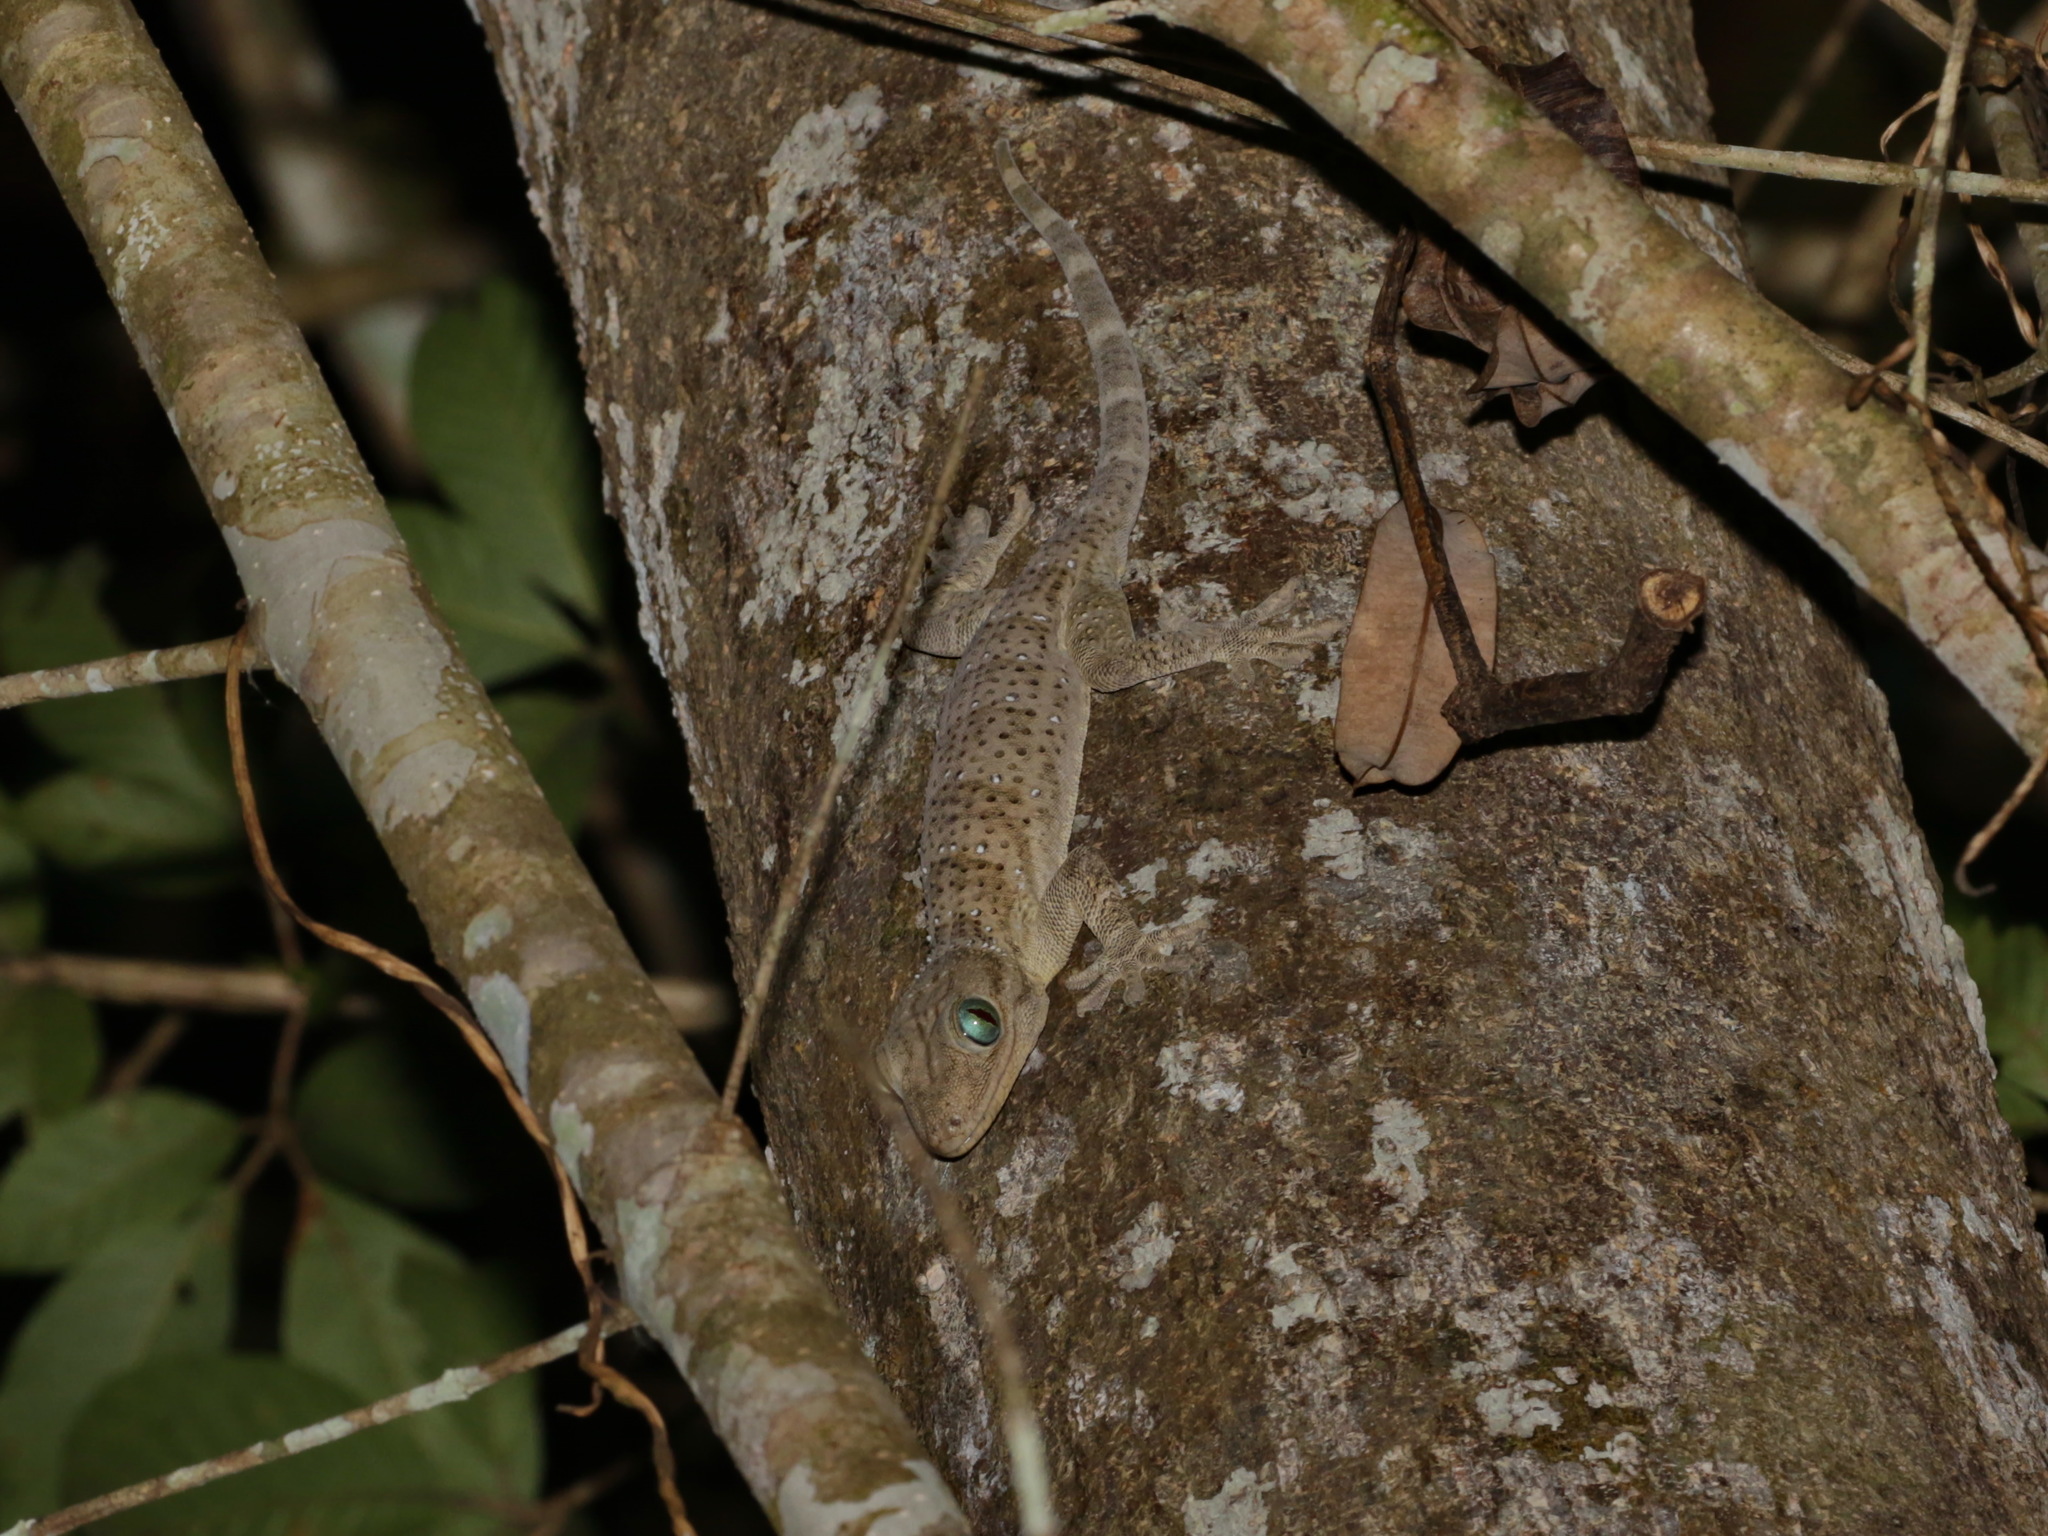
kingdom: Animalia
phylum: Chordata
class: Squamata
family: Gekkonidae
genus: Gekko
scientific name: Gekko hulk
